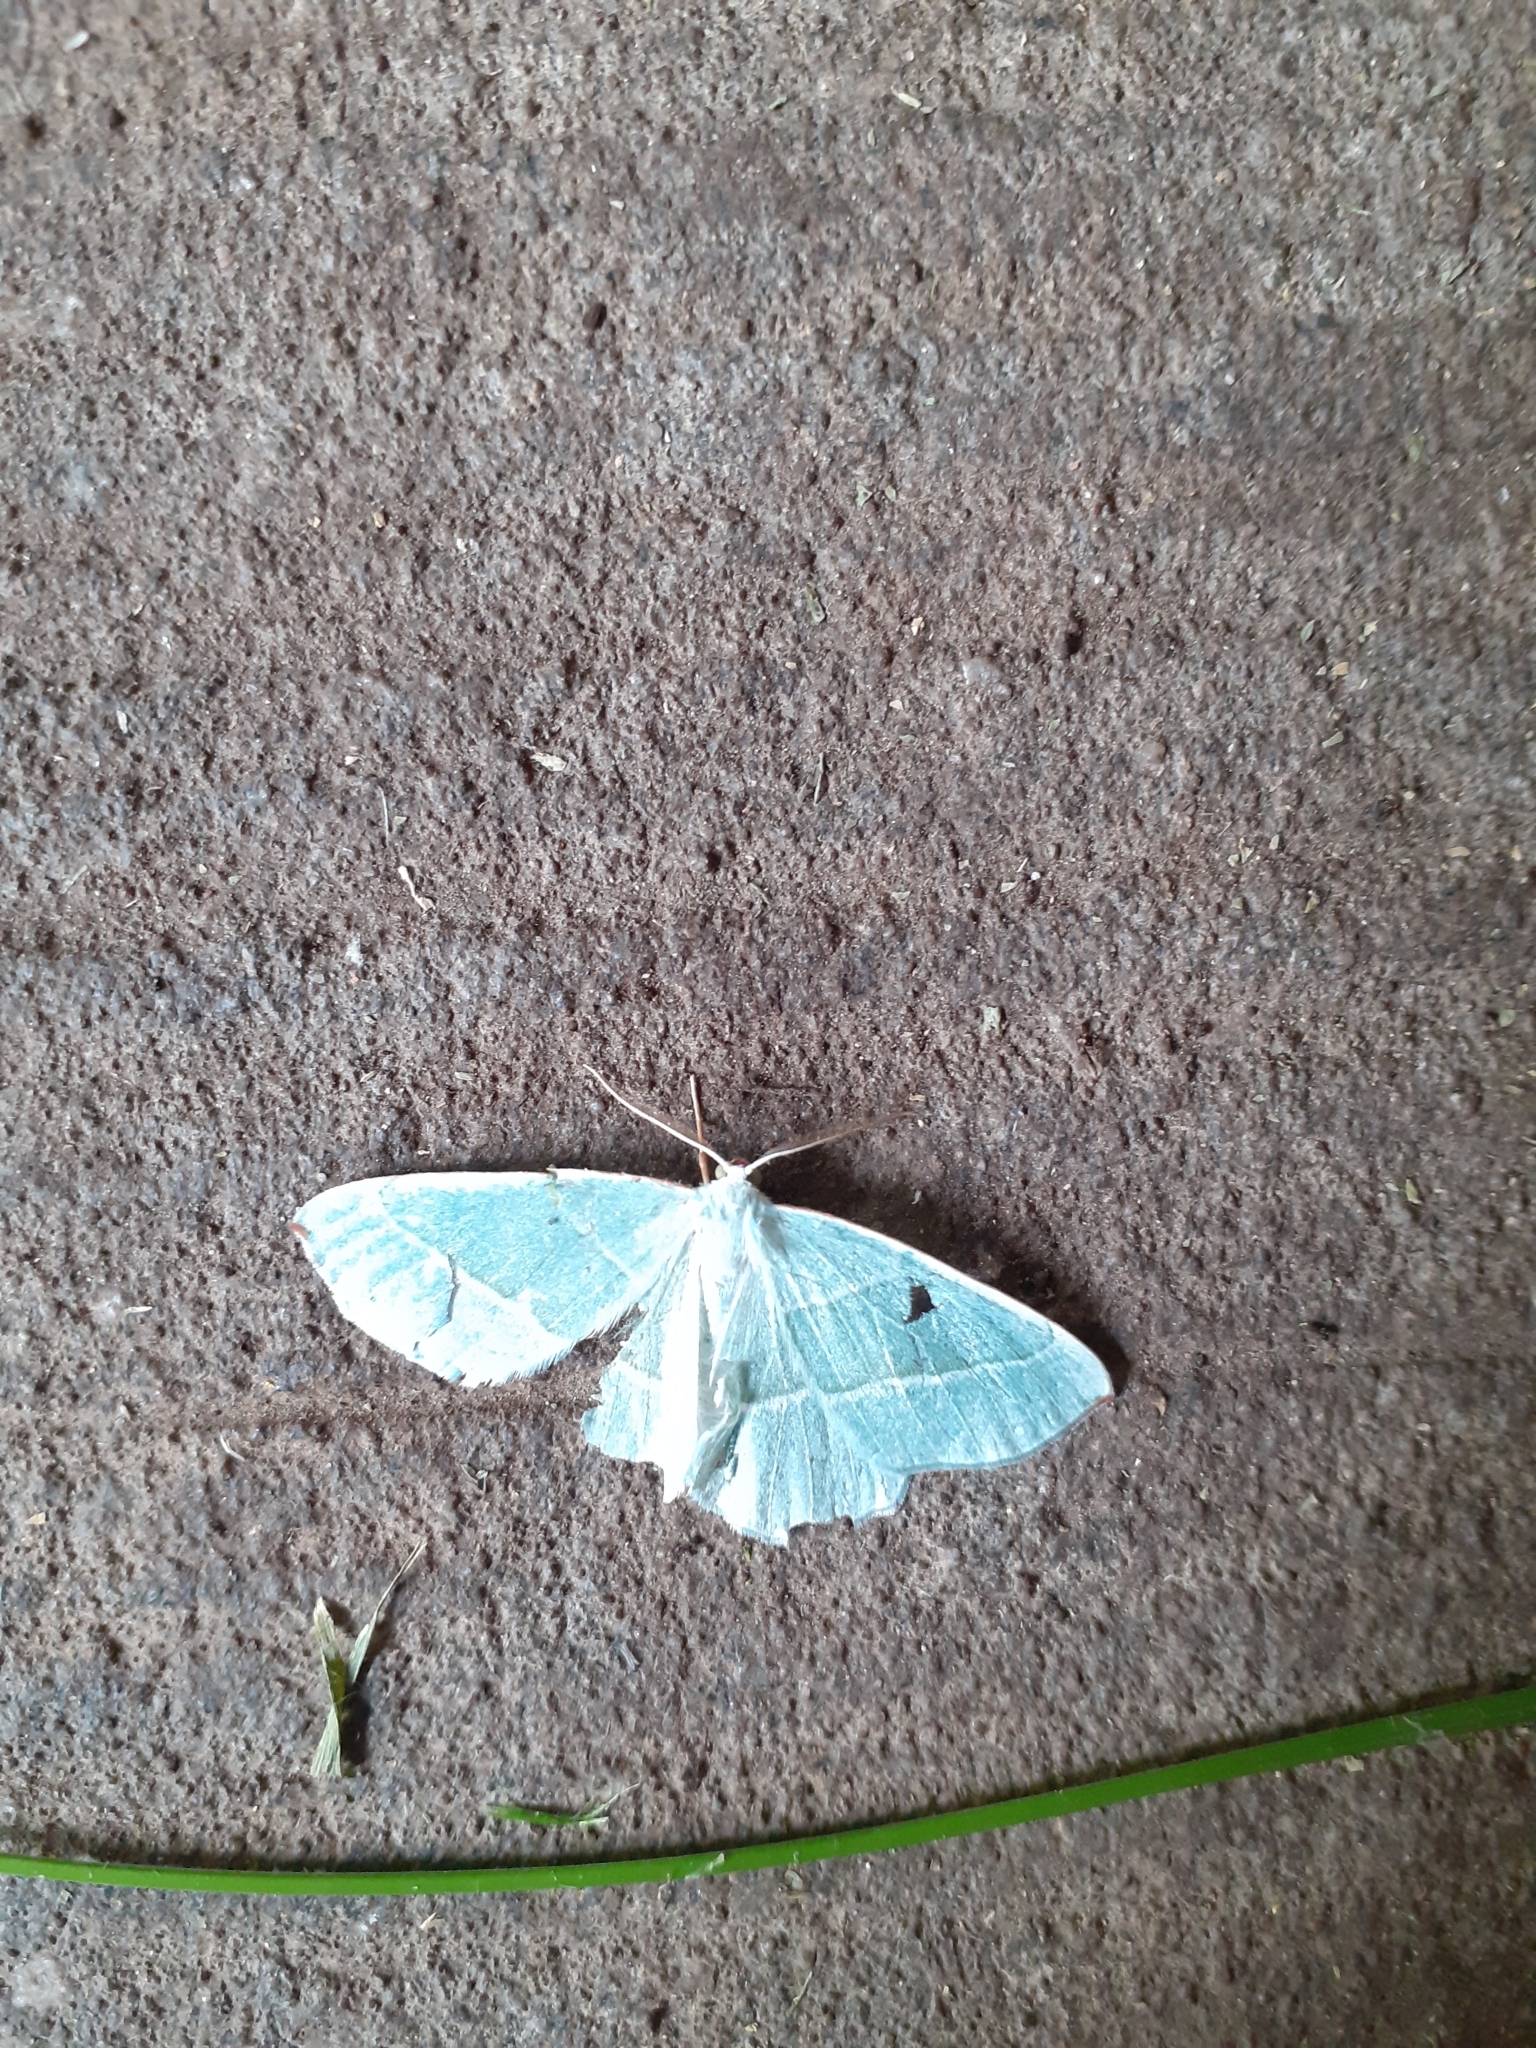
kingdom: Animalia
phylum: Arthropoda
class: Insecta
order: Lepidoptera
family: Geometridae
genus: Campaea
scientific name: Campaea margaritaria
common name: Light emerald
